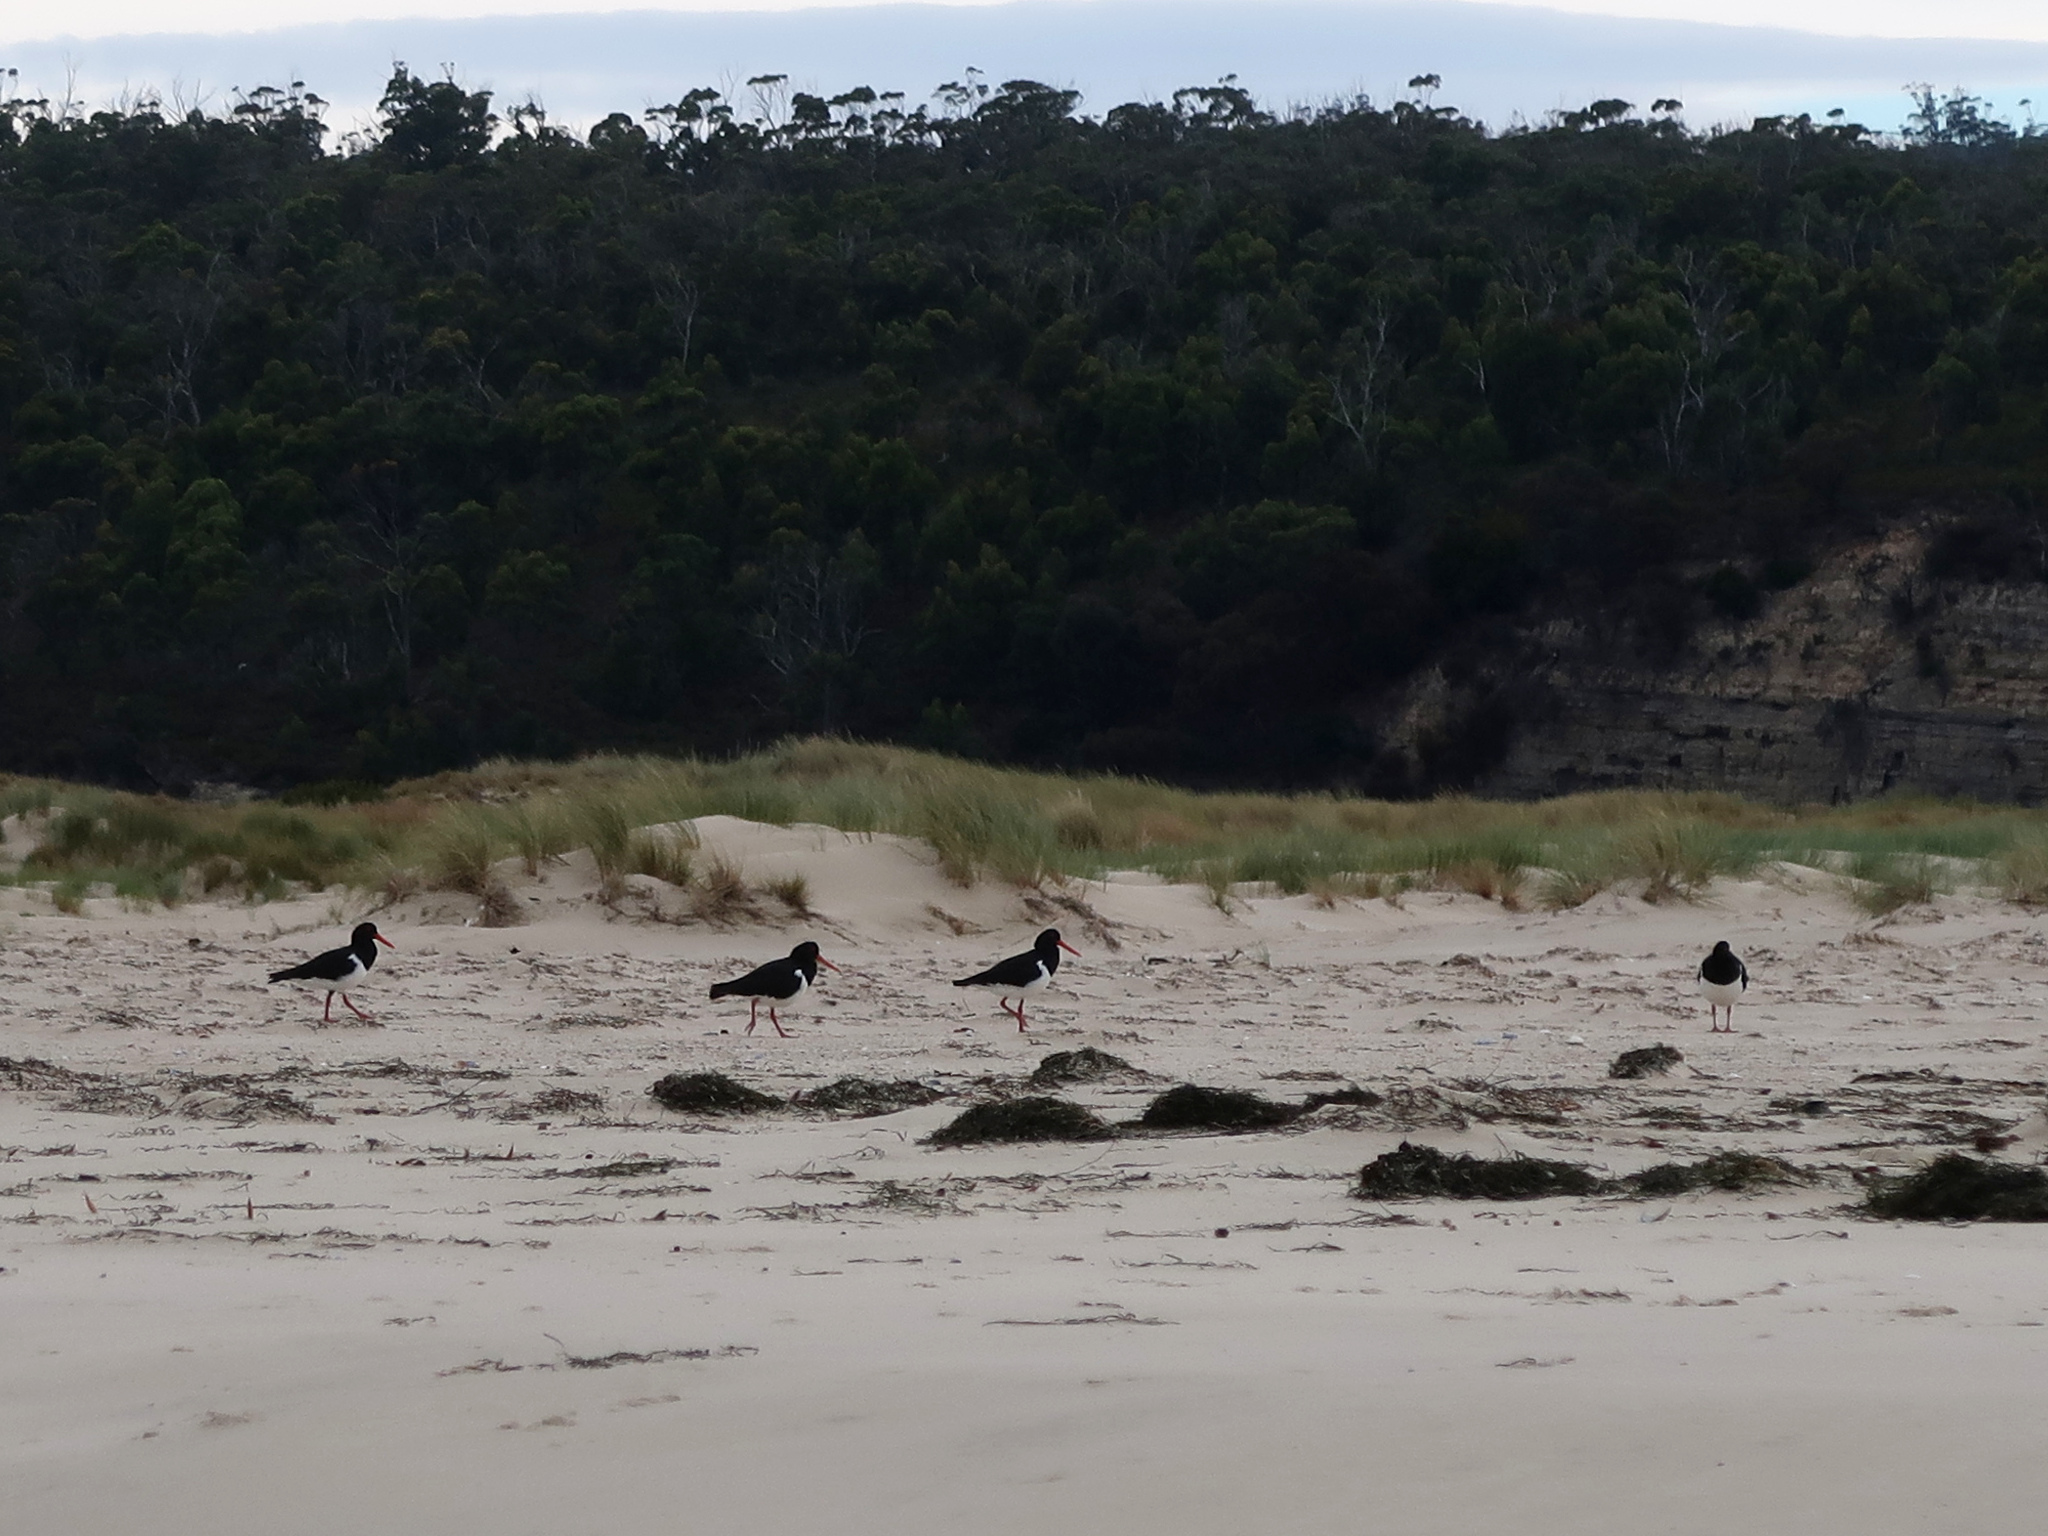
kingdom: Animalia
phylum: Chordata
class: Aves
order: Charadriiformes
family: Haematopodidae
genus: Haematopus
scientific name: Haematopus longirostris
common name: Pied oystercatcher
